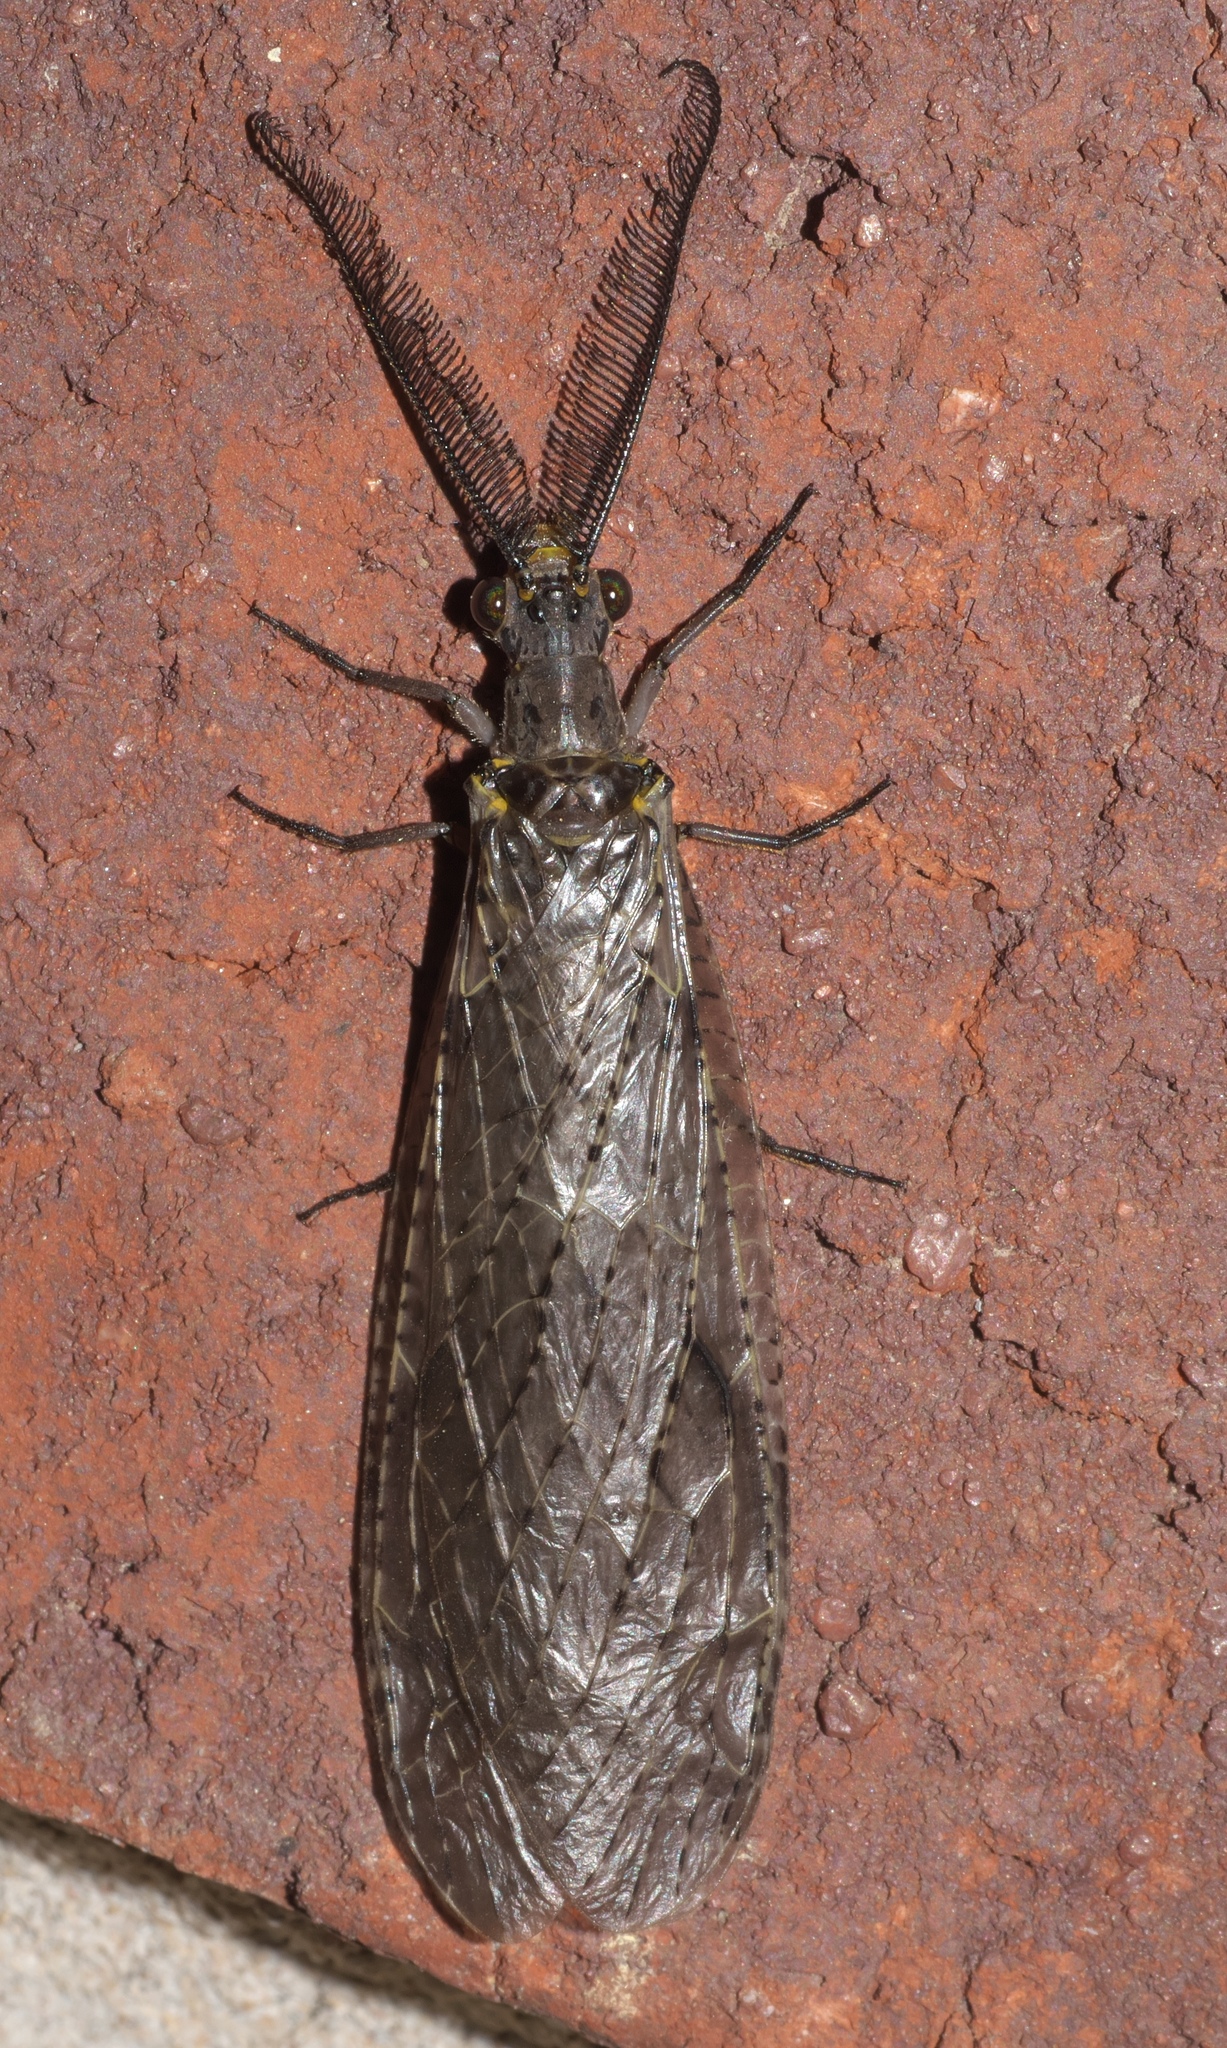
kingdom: Animalia
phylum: Arthropoda
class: Insecta
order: Megaloptera
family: Corydalidae
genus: Chauliodes
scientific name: Chauliodes rastricornis
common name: Spring fishfly
